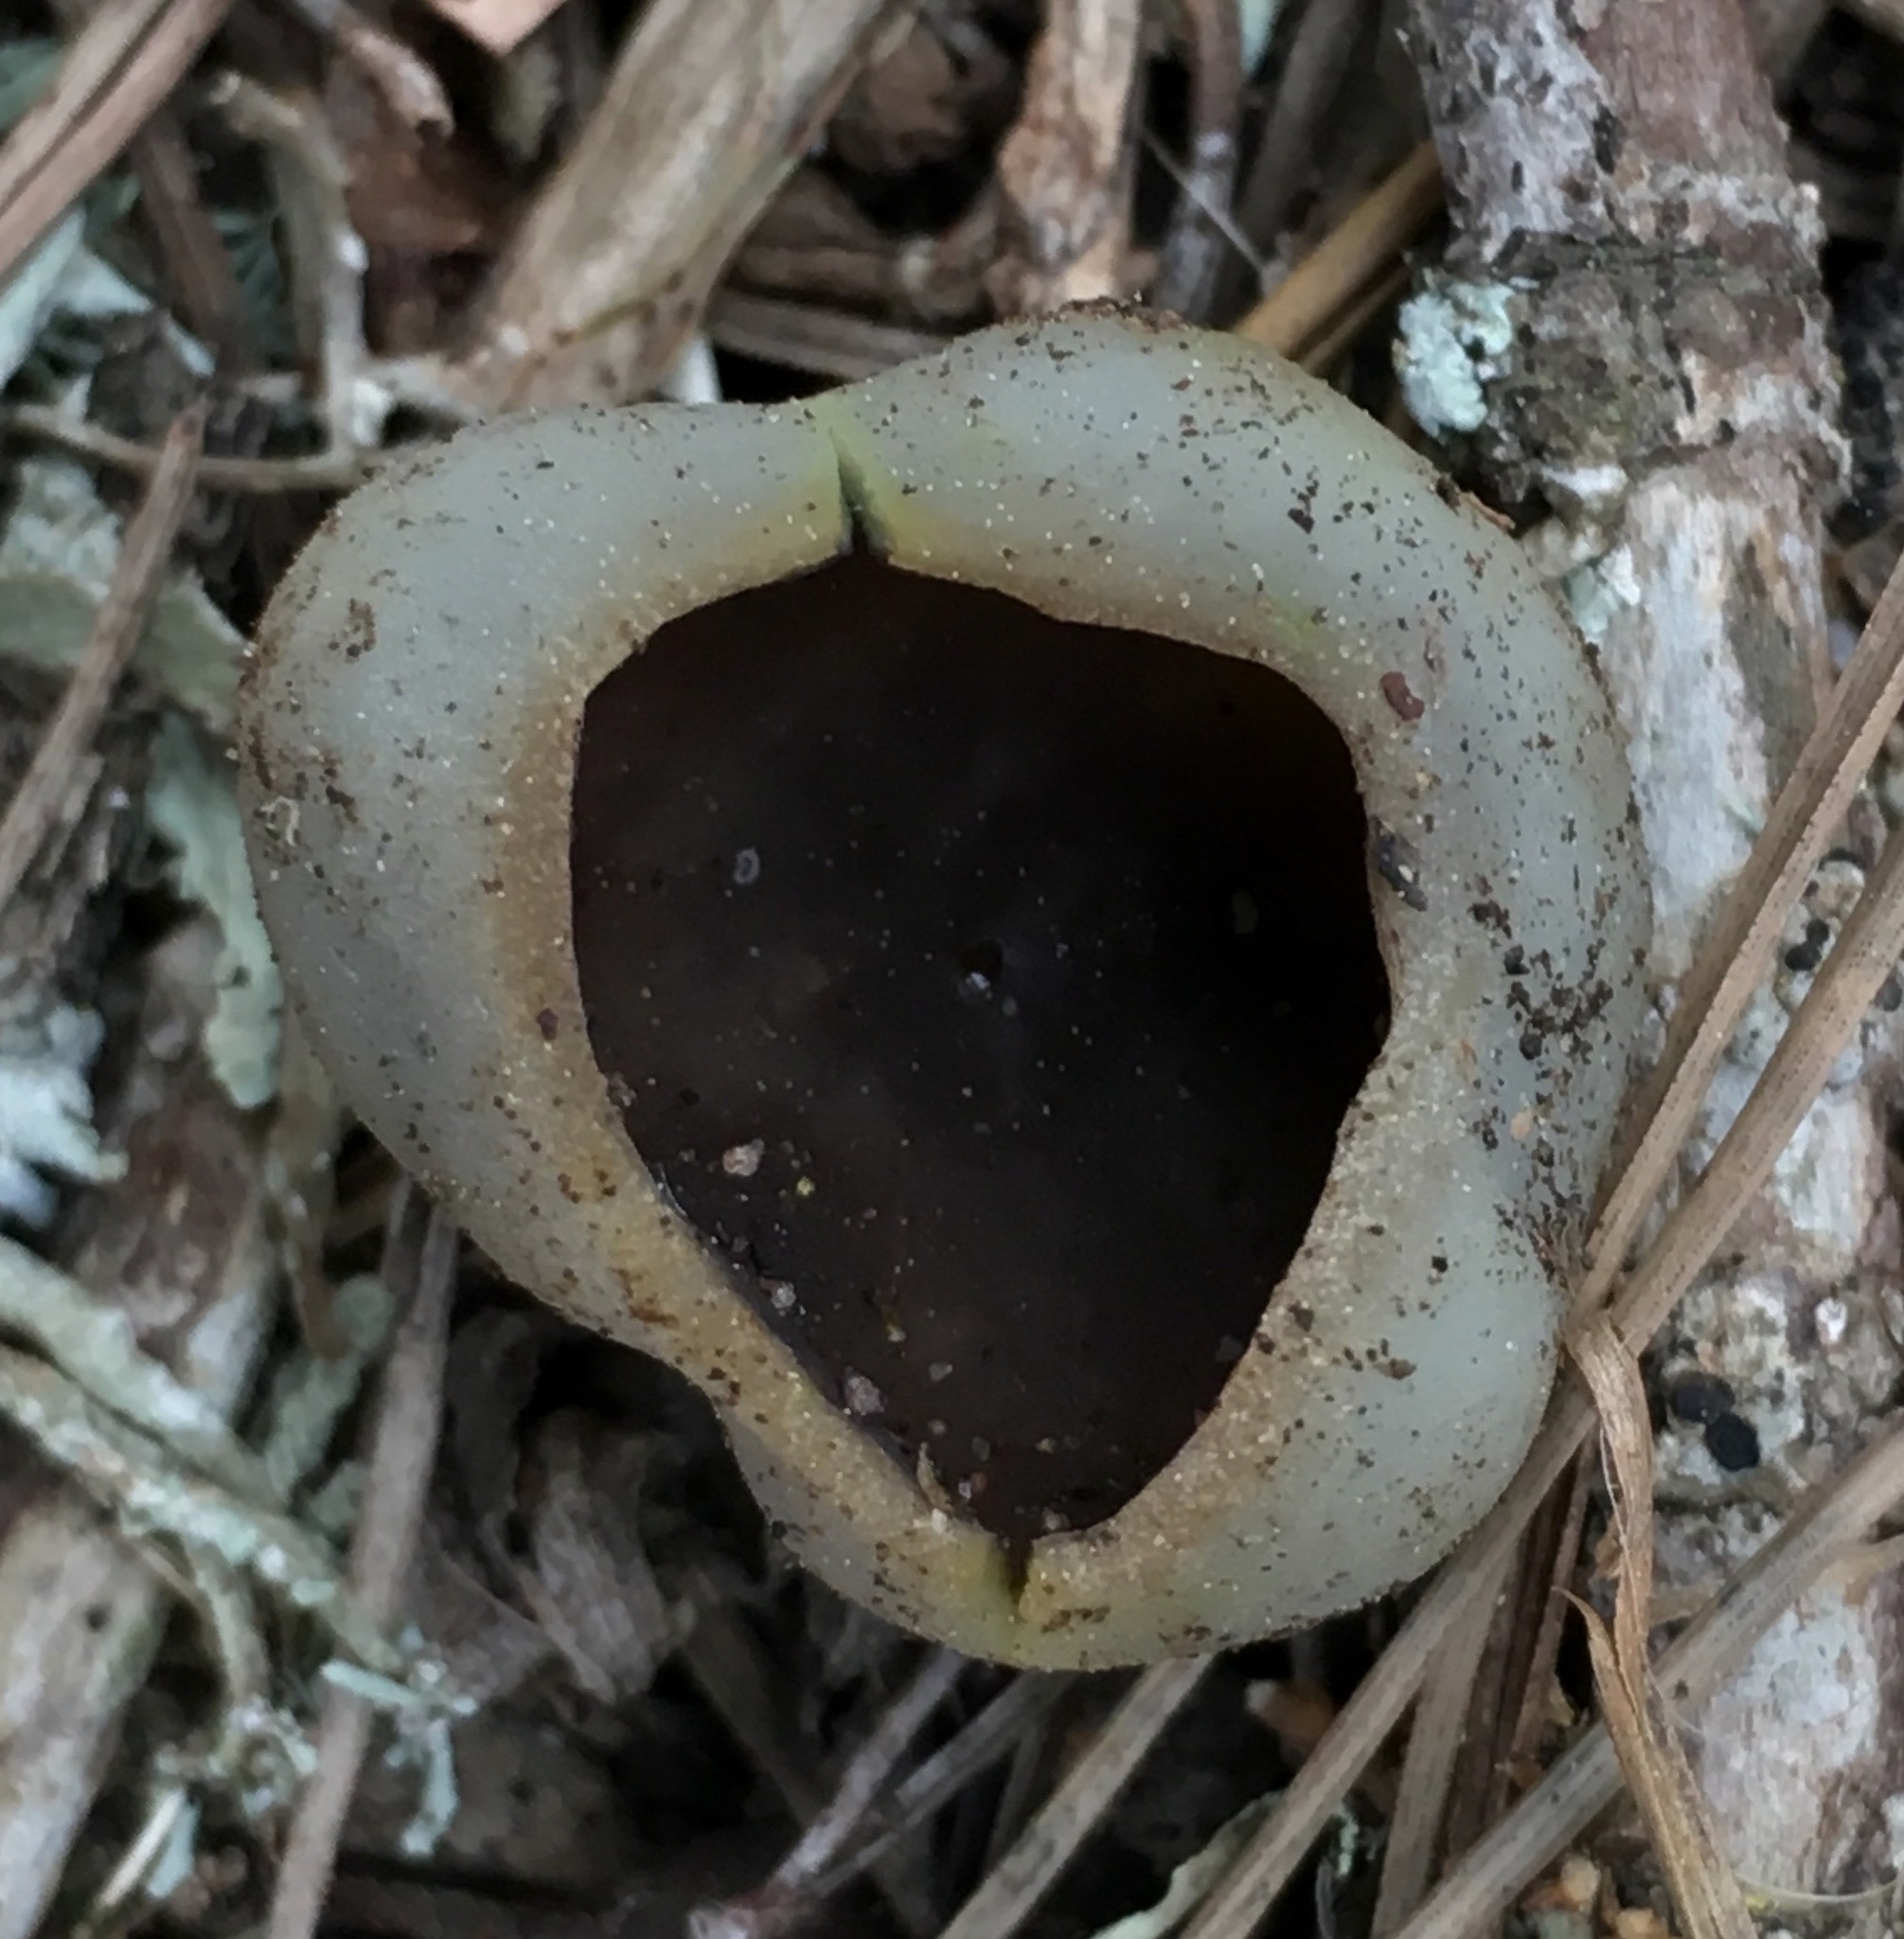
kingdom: Fungi
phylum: Ascomycota
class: Pezizomycetes
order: Pezizales
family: Pezizaceae
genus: Paragalactinia
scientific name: Paragalactinia succosa
